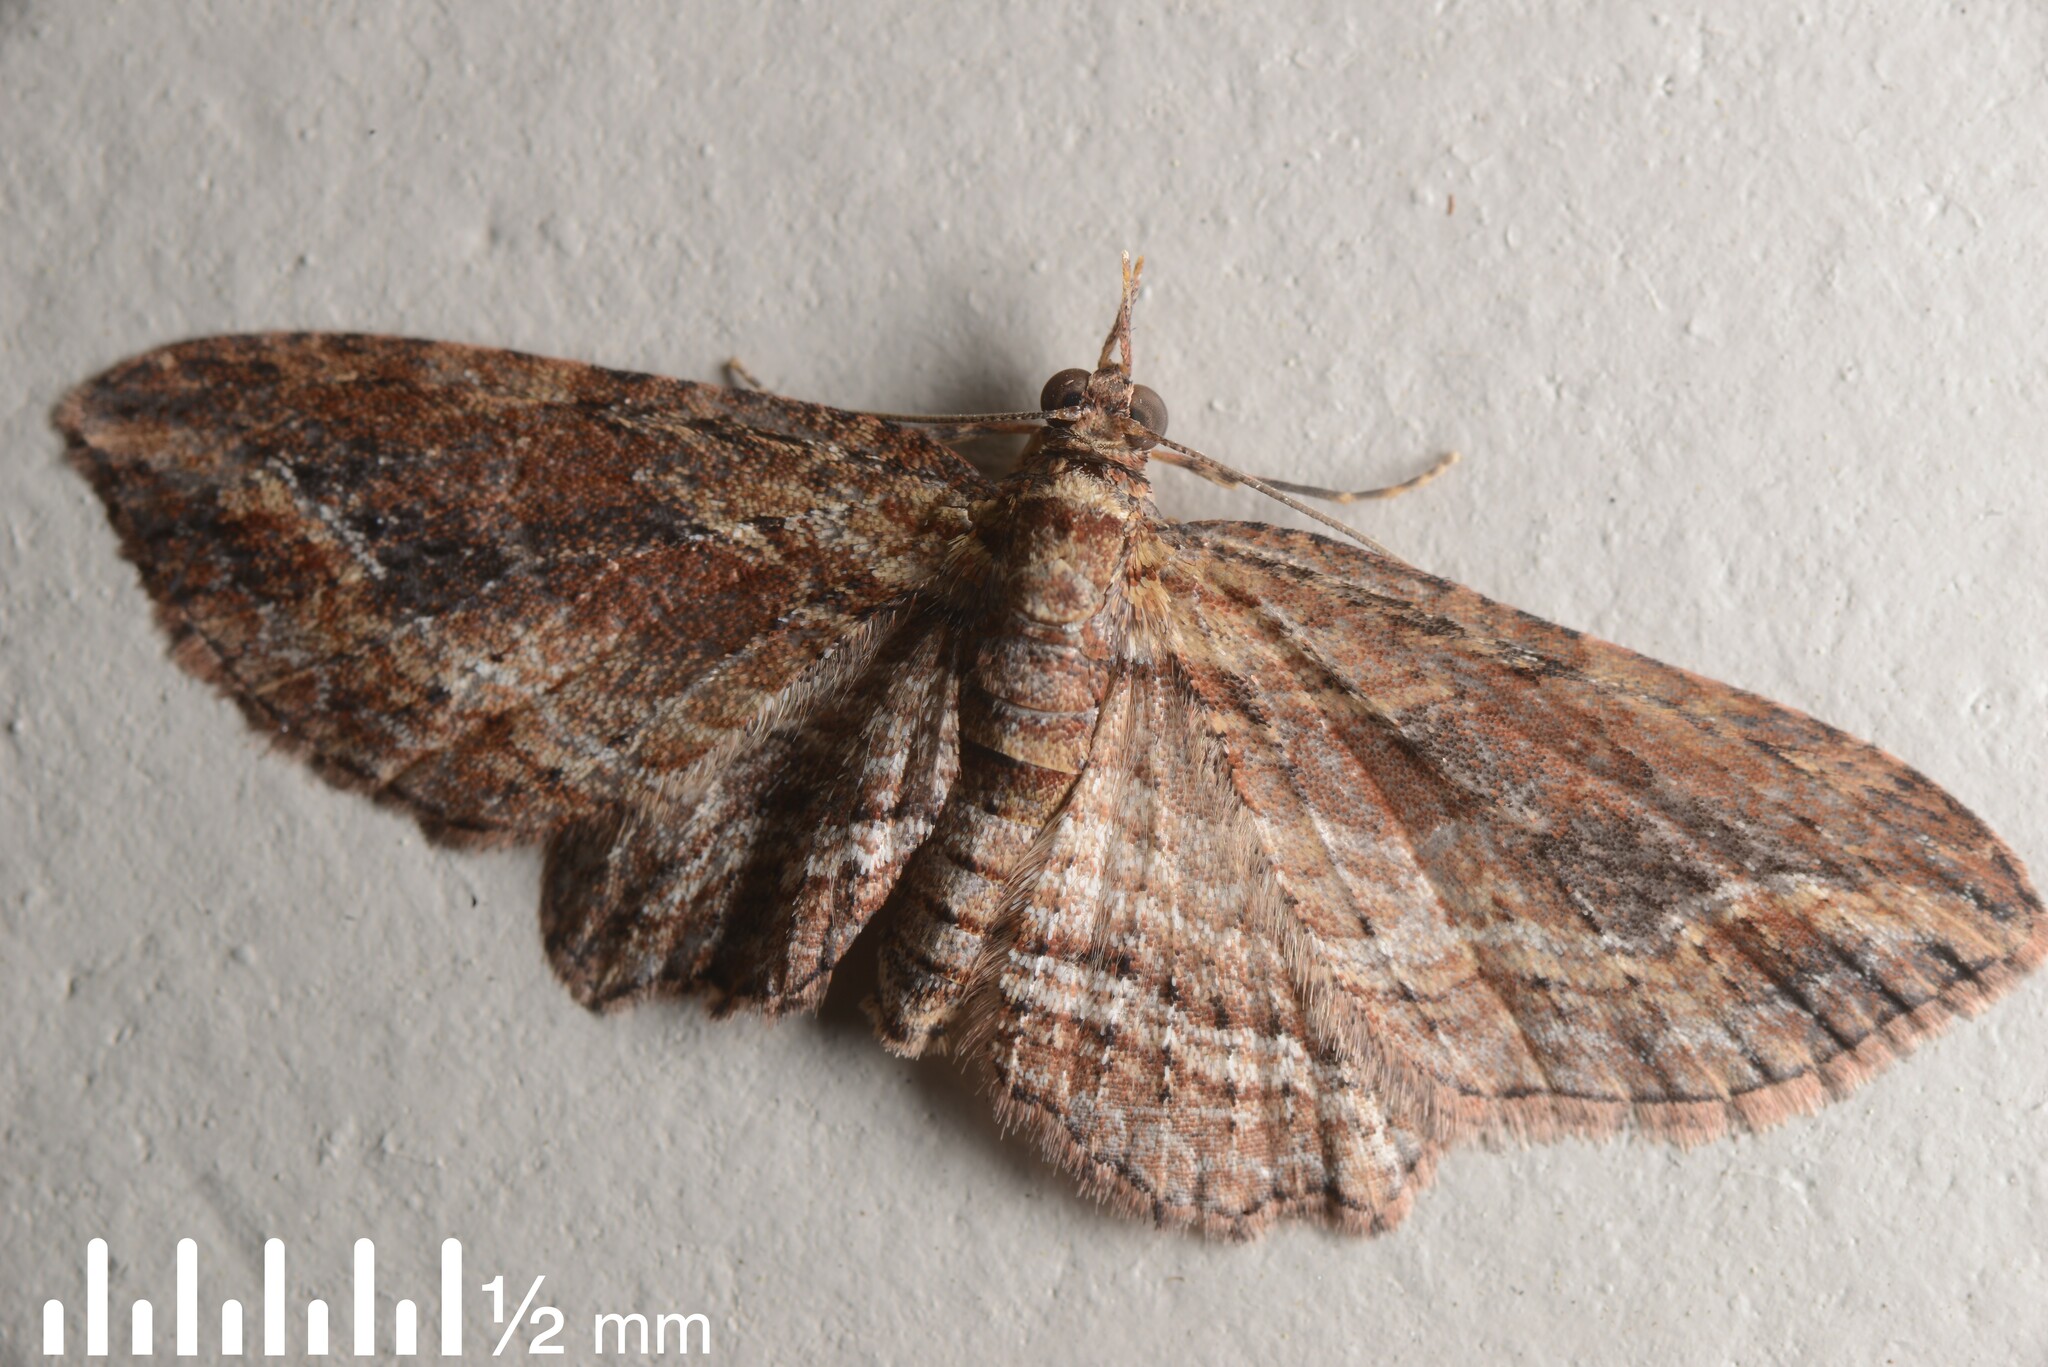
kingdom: Animalia
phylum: Arthropoda
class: Insecta
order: Lepidoptera
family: Geometridae
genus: Chloroclystis
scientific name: Chloroclystis filata
